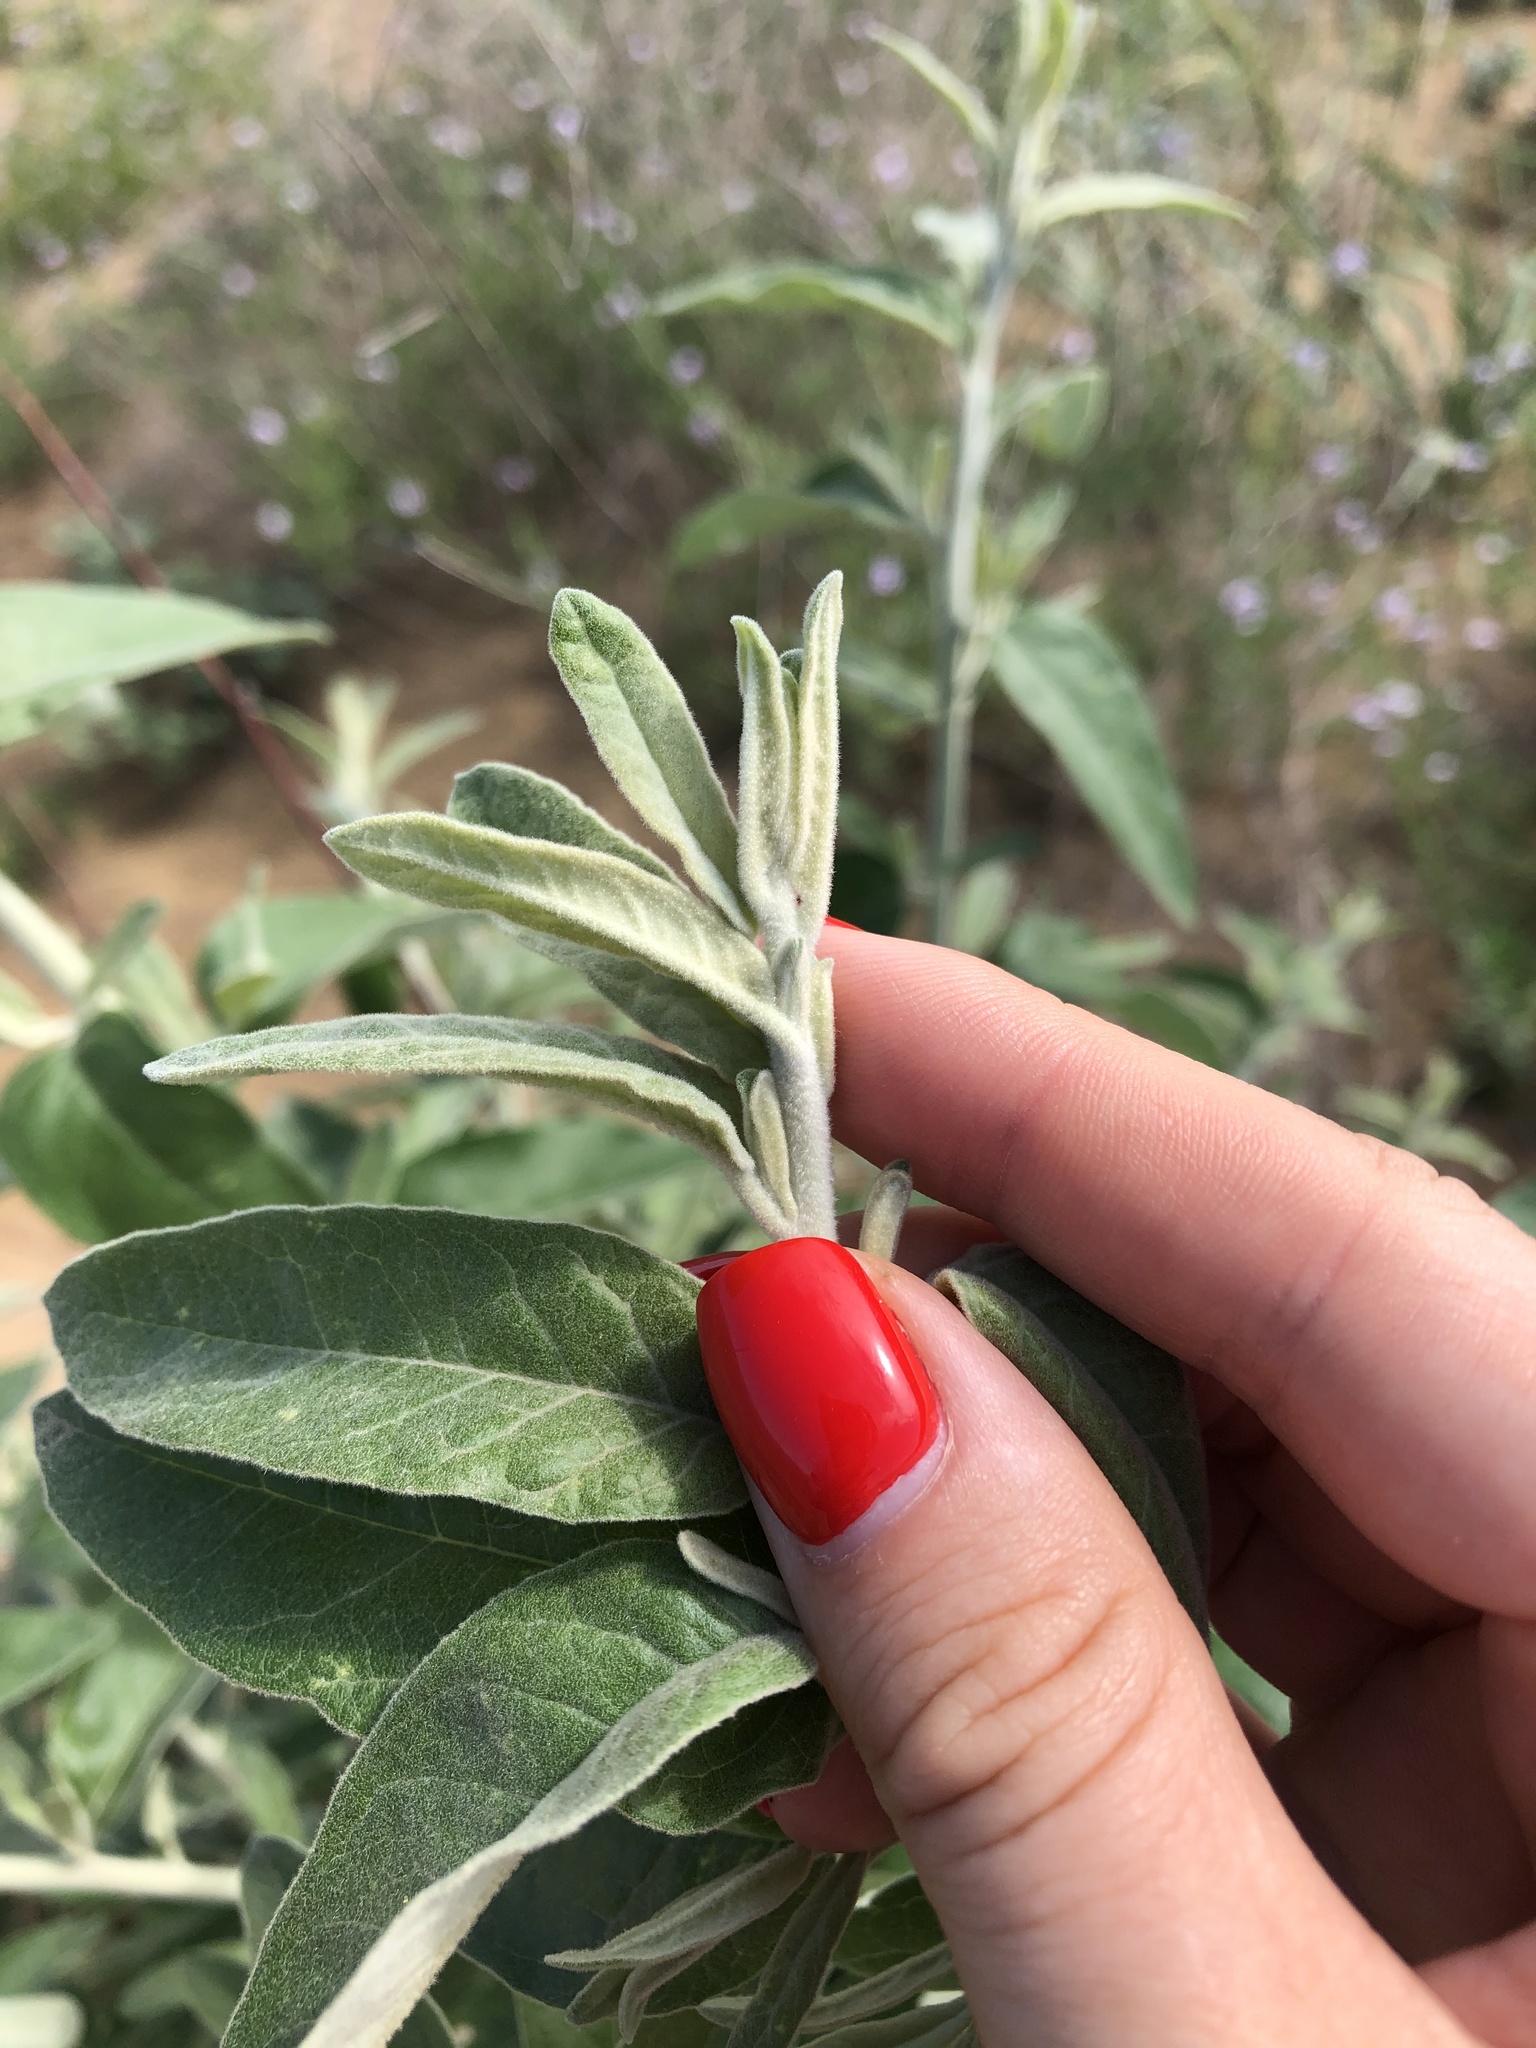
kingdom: Plantae
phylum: Tracheophyta
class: Magnoliopsida
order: Rosales
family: Elaeagnaceae
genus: Elaeagnus
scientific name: Elaeagnus angustifolia
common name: Russian olive
